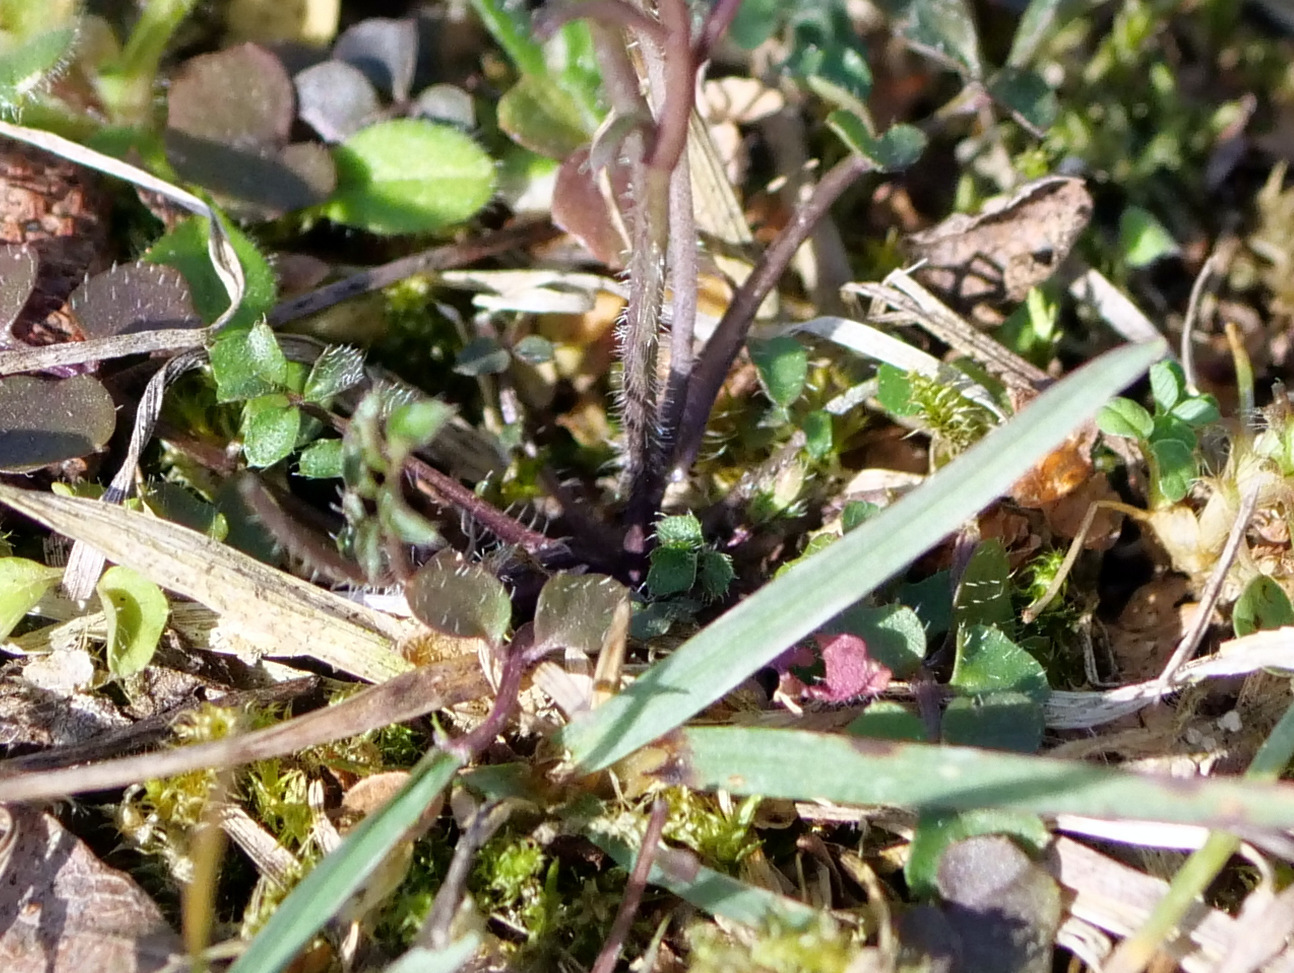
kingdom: Plantae
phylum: Tracheophyta
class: Magnoliopsida
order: Brassicales
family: Brassicaceae
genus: Cardamine
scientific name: Cardamine hirsuta
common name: Hairy bittercress
